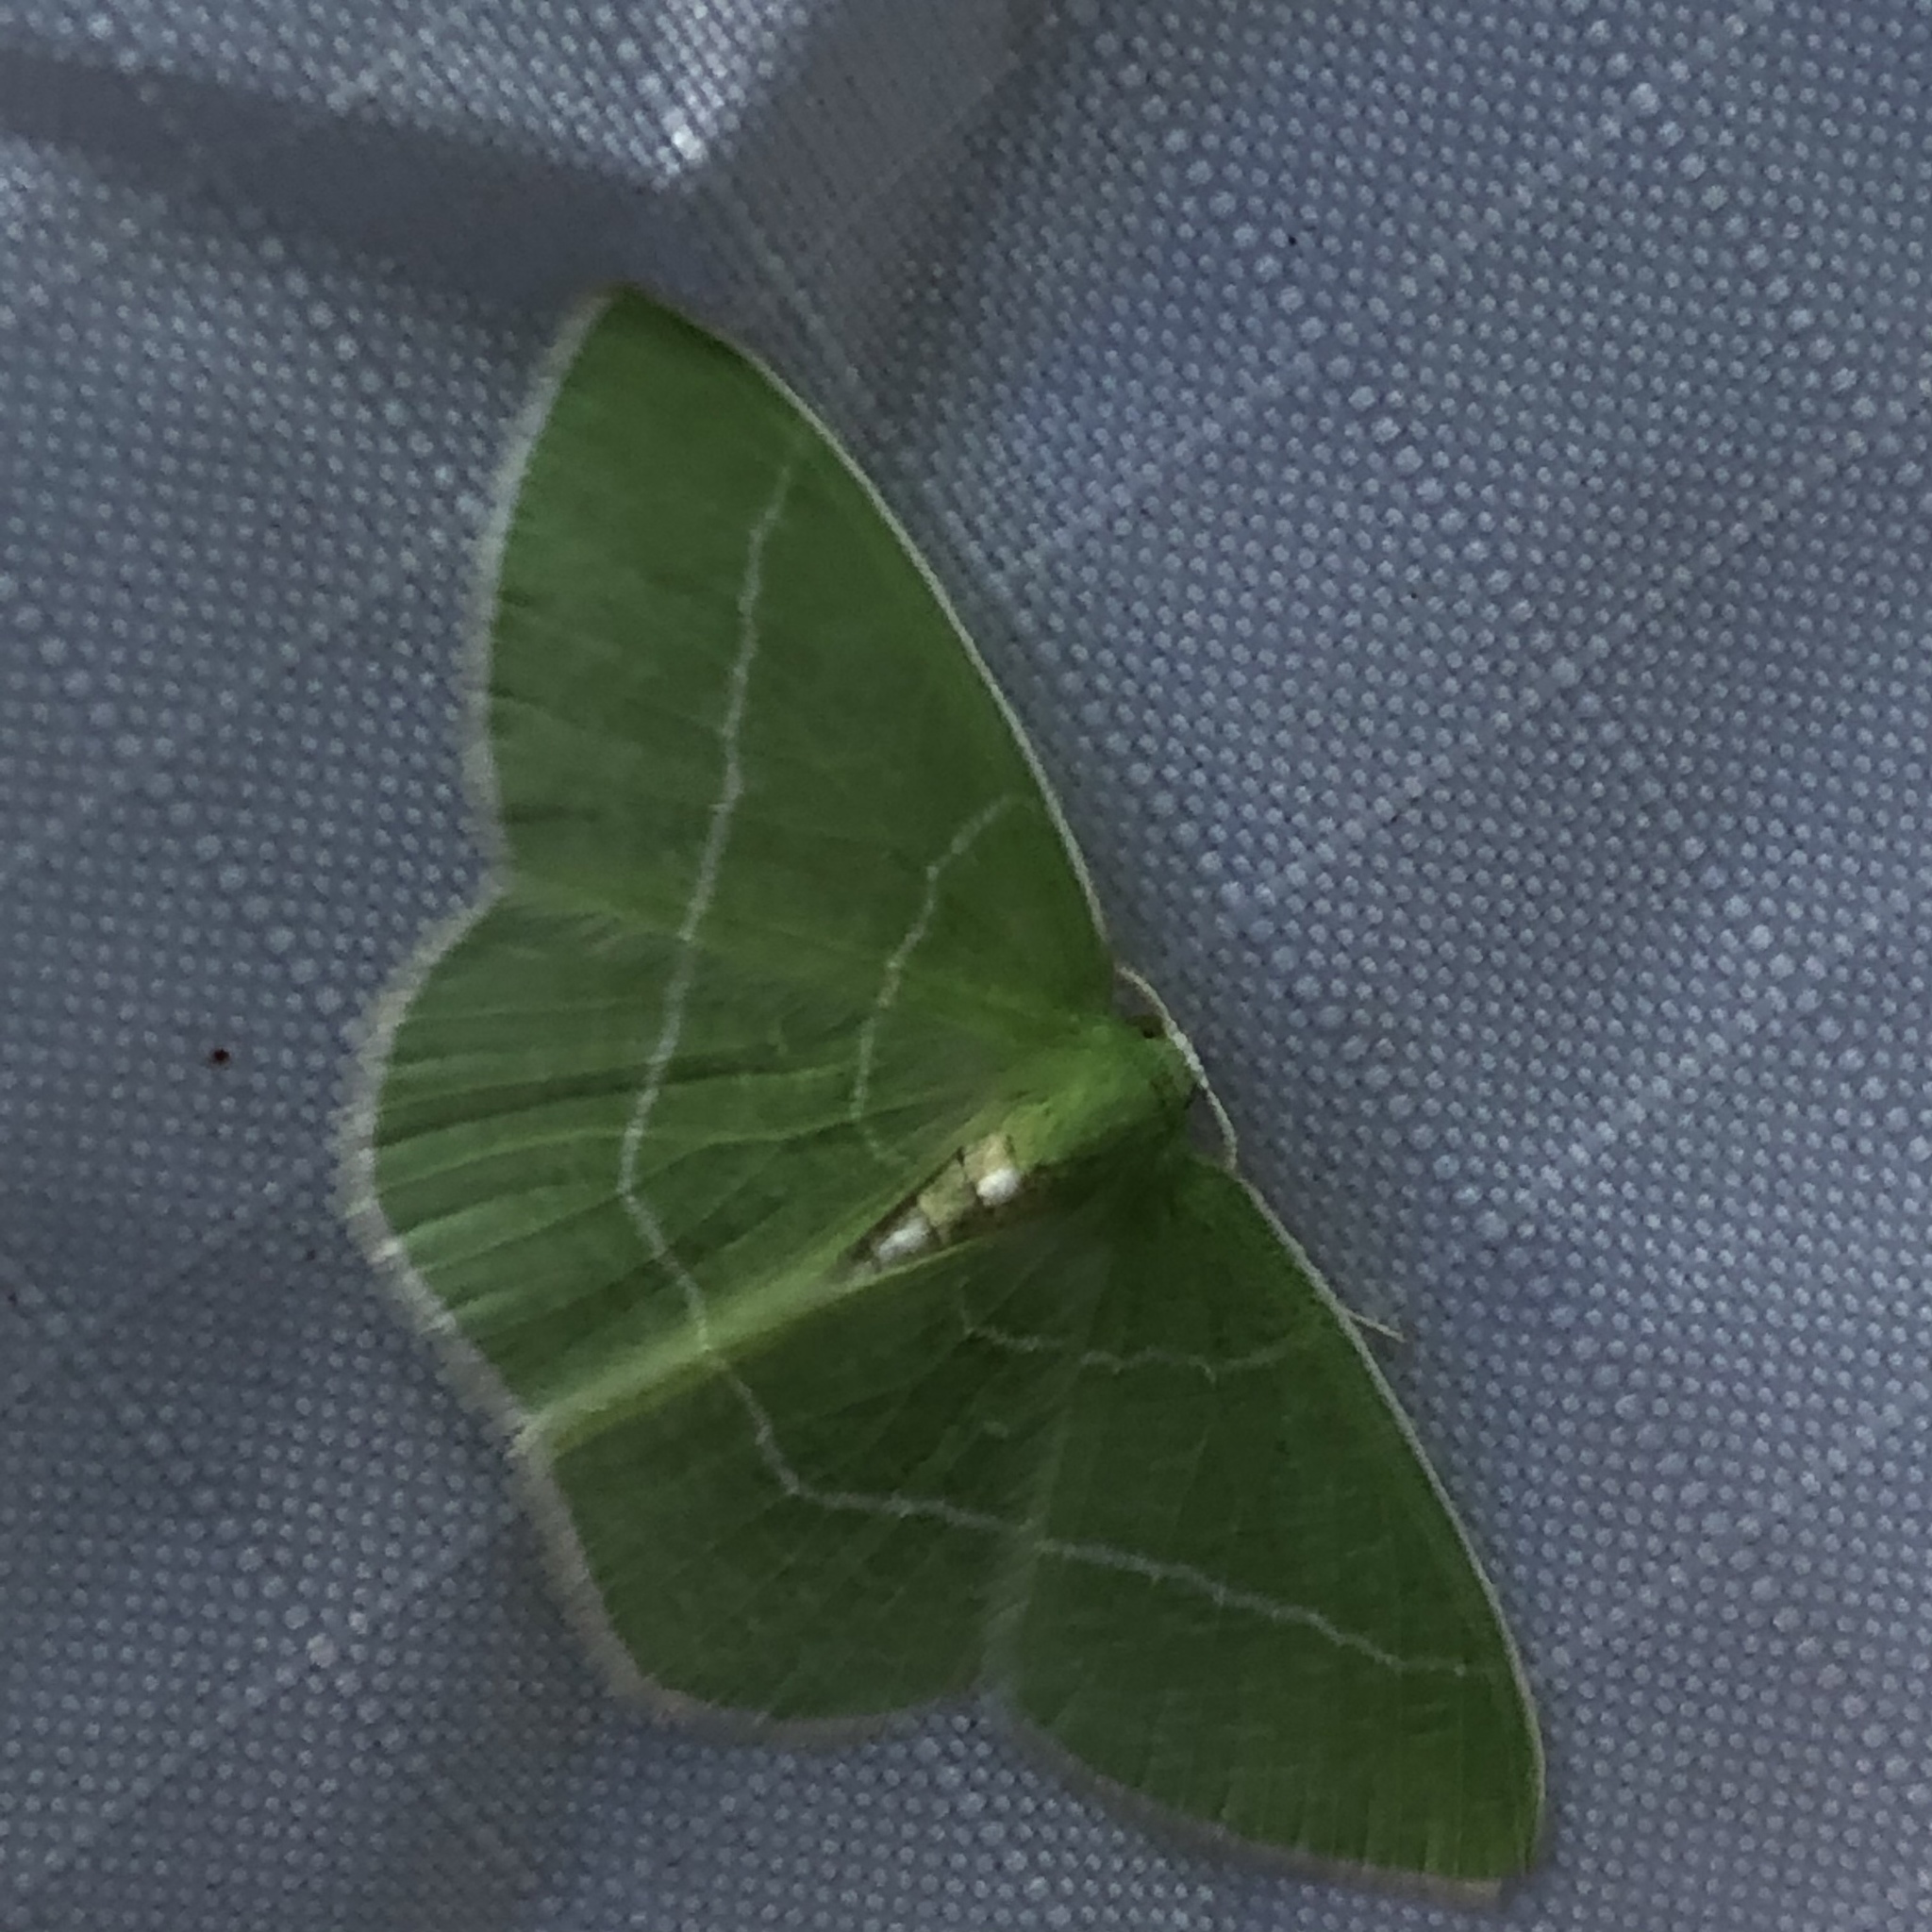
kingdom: Animalia
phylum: Arthropoda
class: Insecta
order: Lepidoptera
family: Geometridae
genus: Nemoria
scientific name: Nemoria mimosaria
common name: White-fringed emerald
